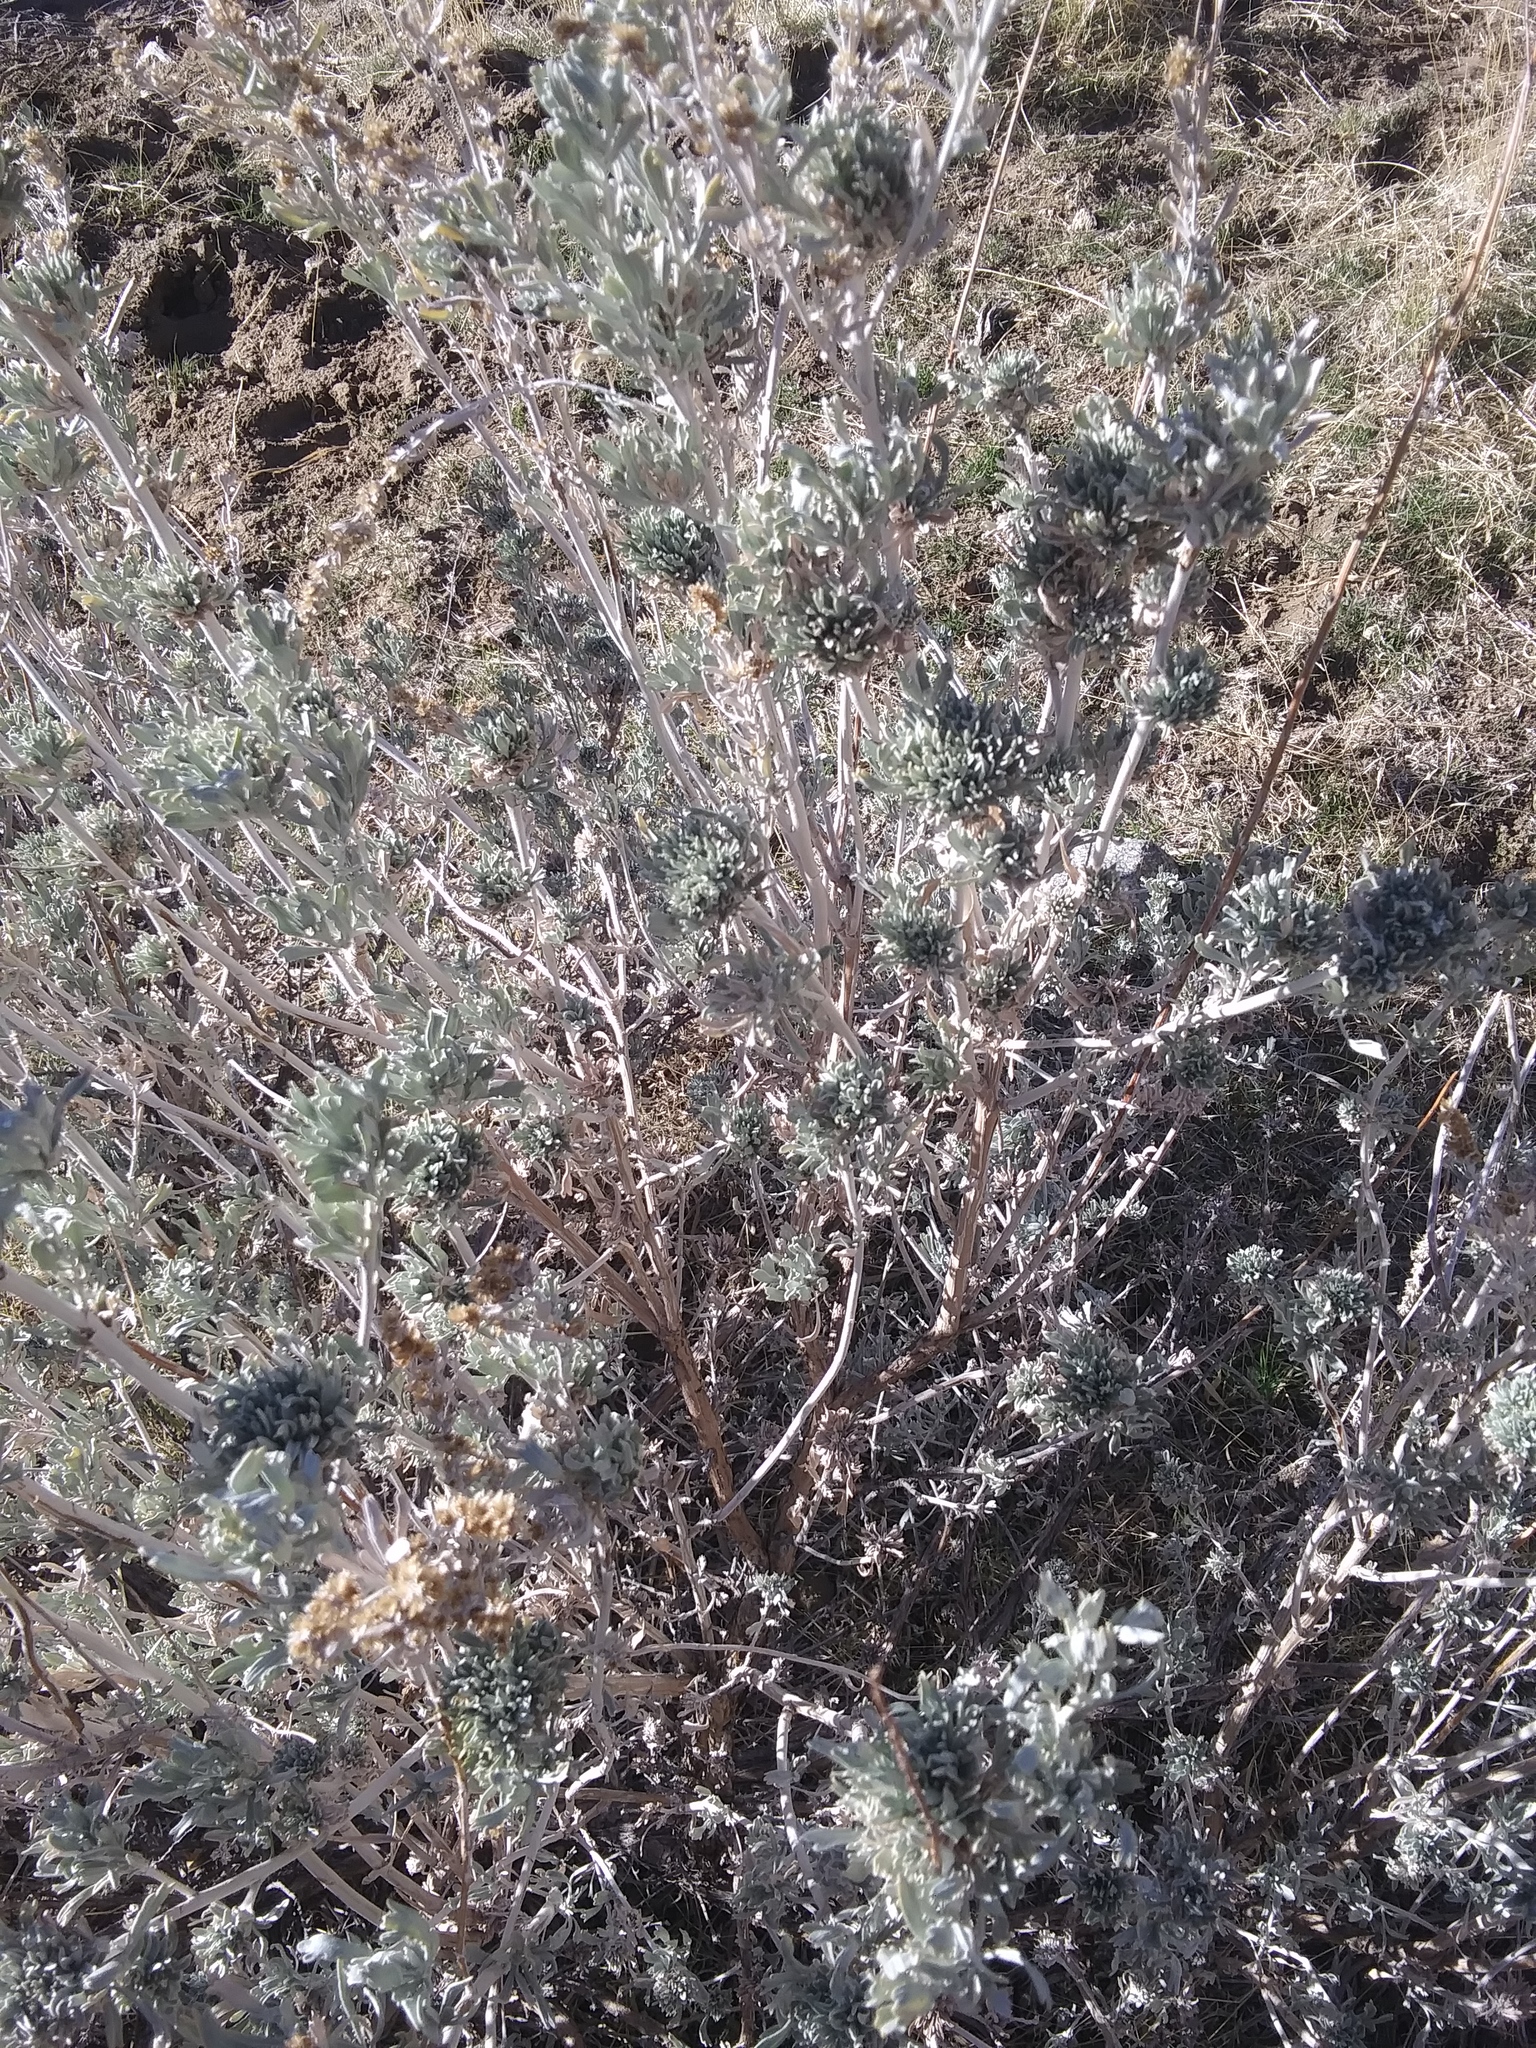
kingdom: Plantae
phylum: Tracheophyta
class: Magnoliopsida
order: Asterales
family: Asteraceae
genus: Artemisia
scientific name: Artemisia tridentata
